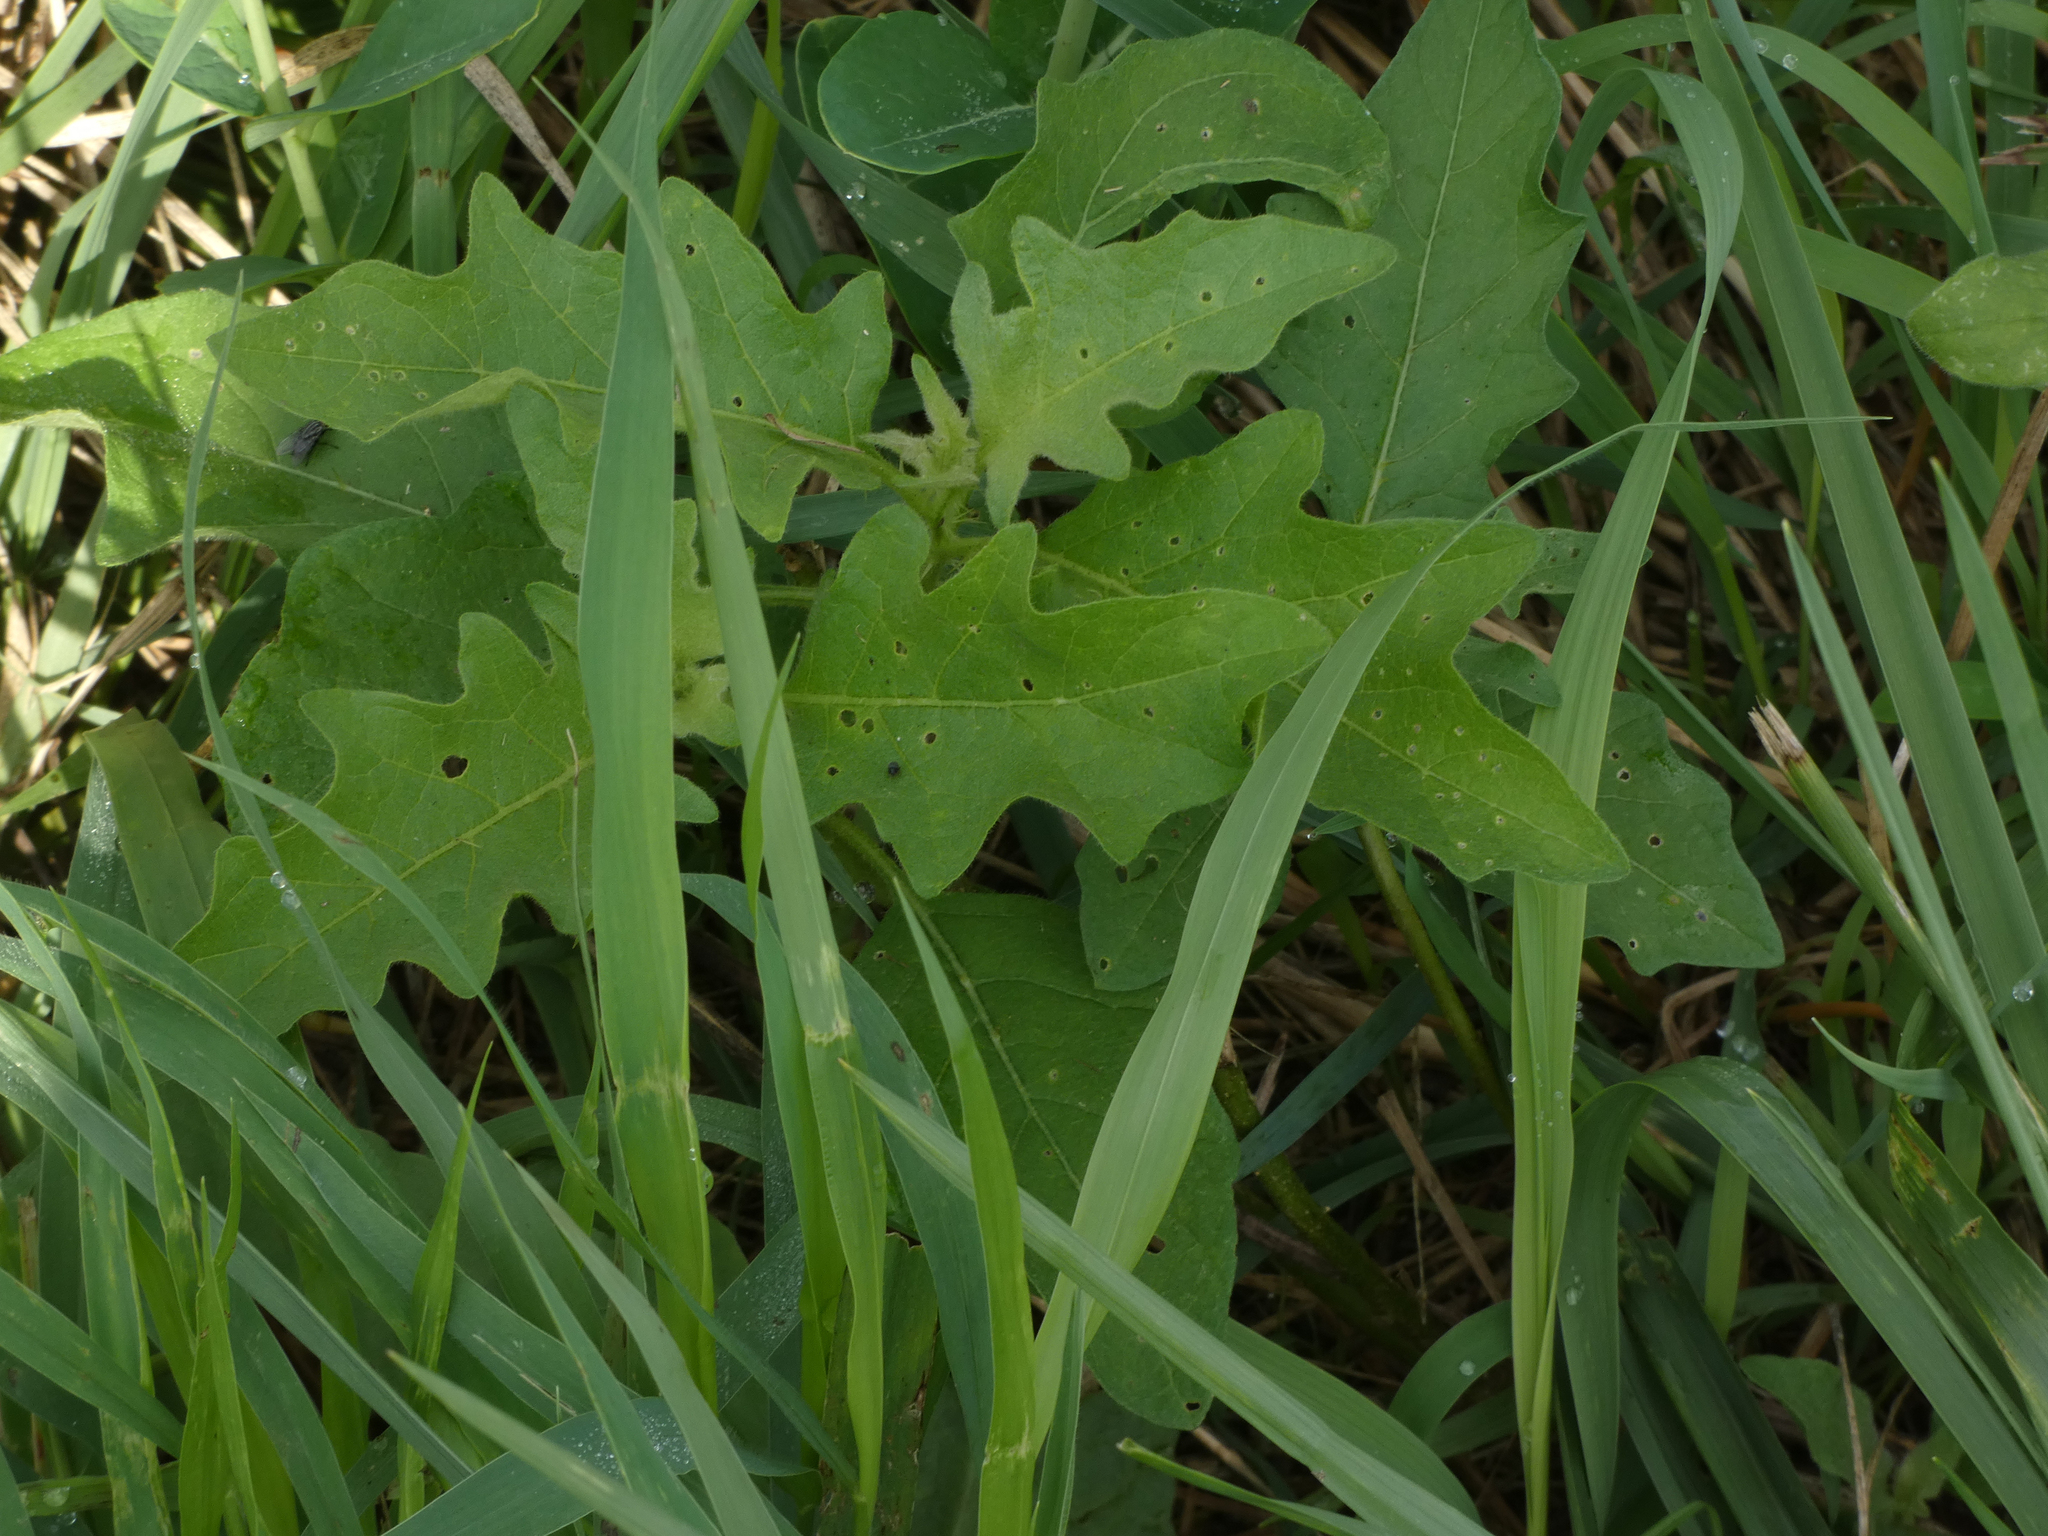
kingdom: Plantae
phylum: Tracheophyta
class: Magnoliopsida
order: Solanales
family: Solanaceae
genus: Solanum
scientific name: Solanum carolinense
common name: Horse-nettle
